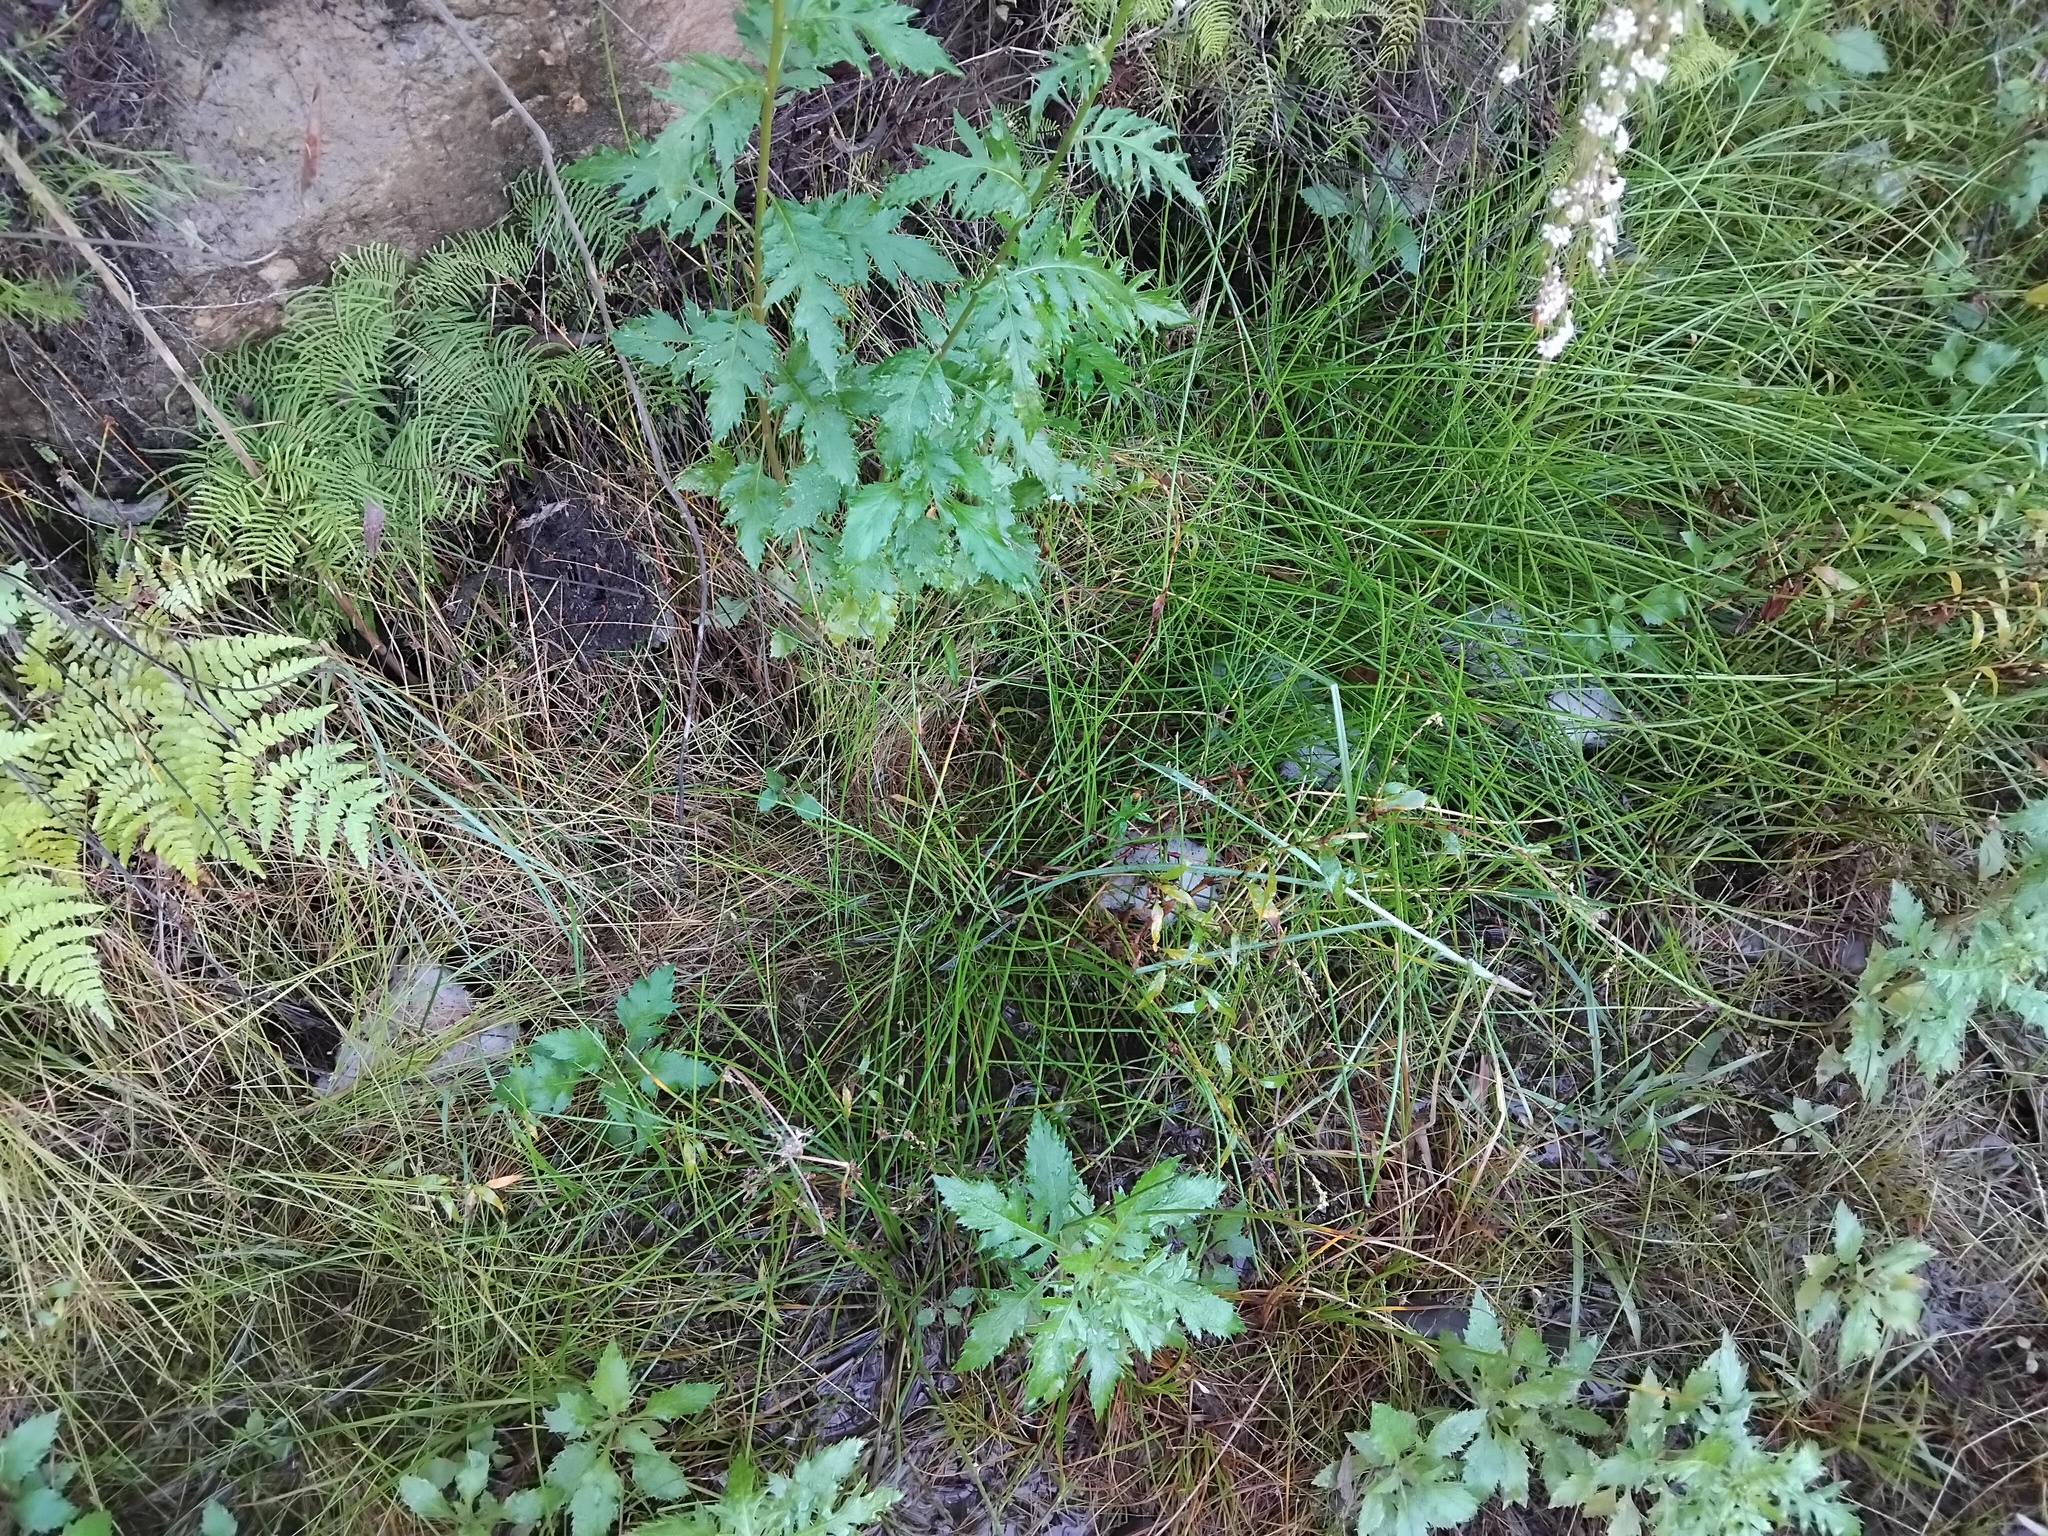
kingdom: Animalia
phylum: Chordata
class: Amphibia
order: Anura
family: Limnodynastidae
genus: Limnodynastes
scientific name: Limnodynastes peronii
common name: Brown frog
